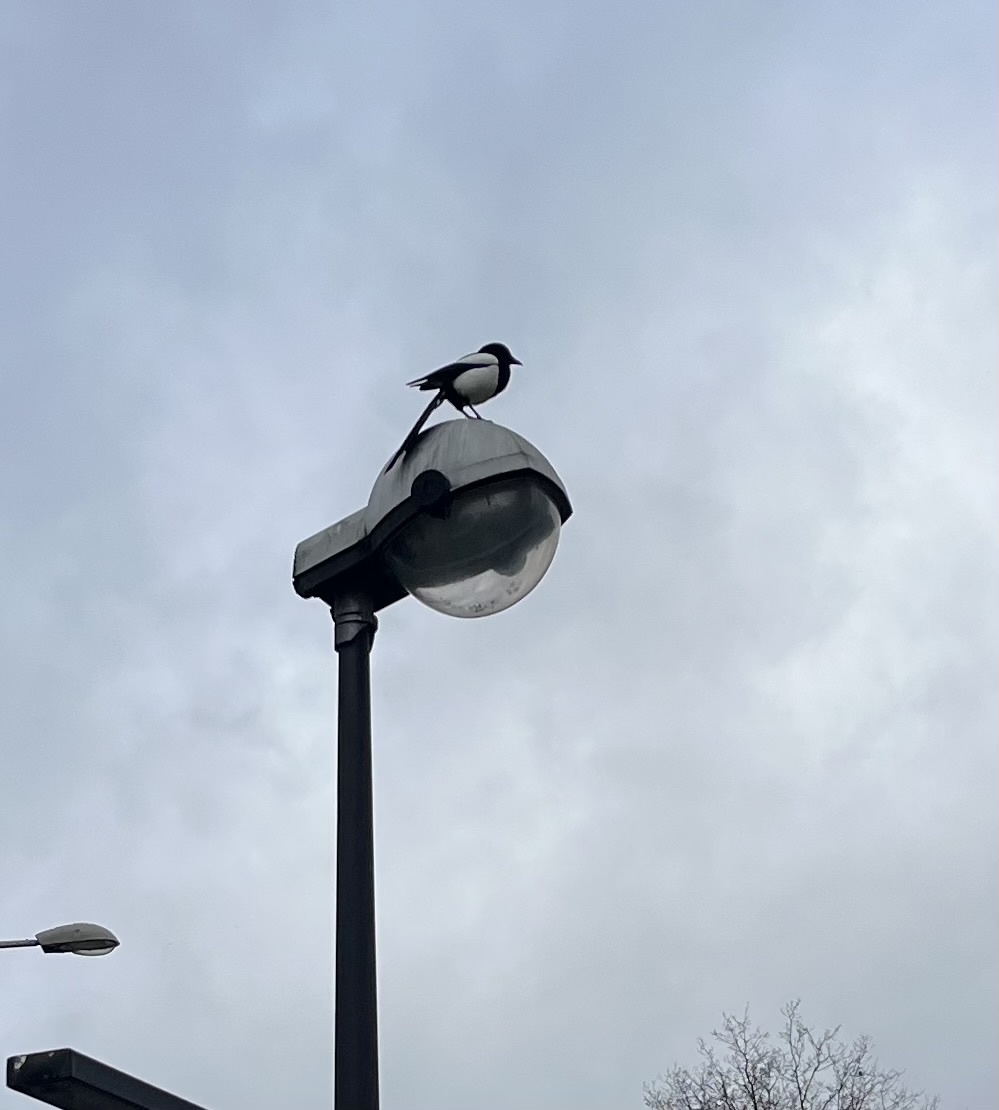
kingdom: Animalia
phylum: Chordata
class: Aves
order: Passeriformes
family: Corvidae
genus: Pica
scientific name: Pica pica
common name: Eurasian magpie
